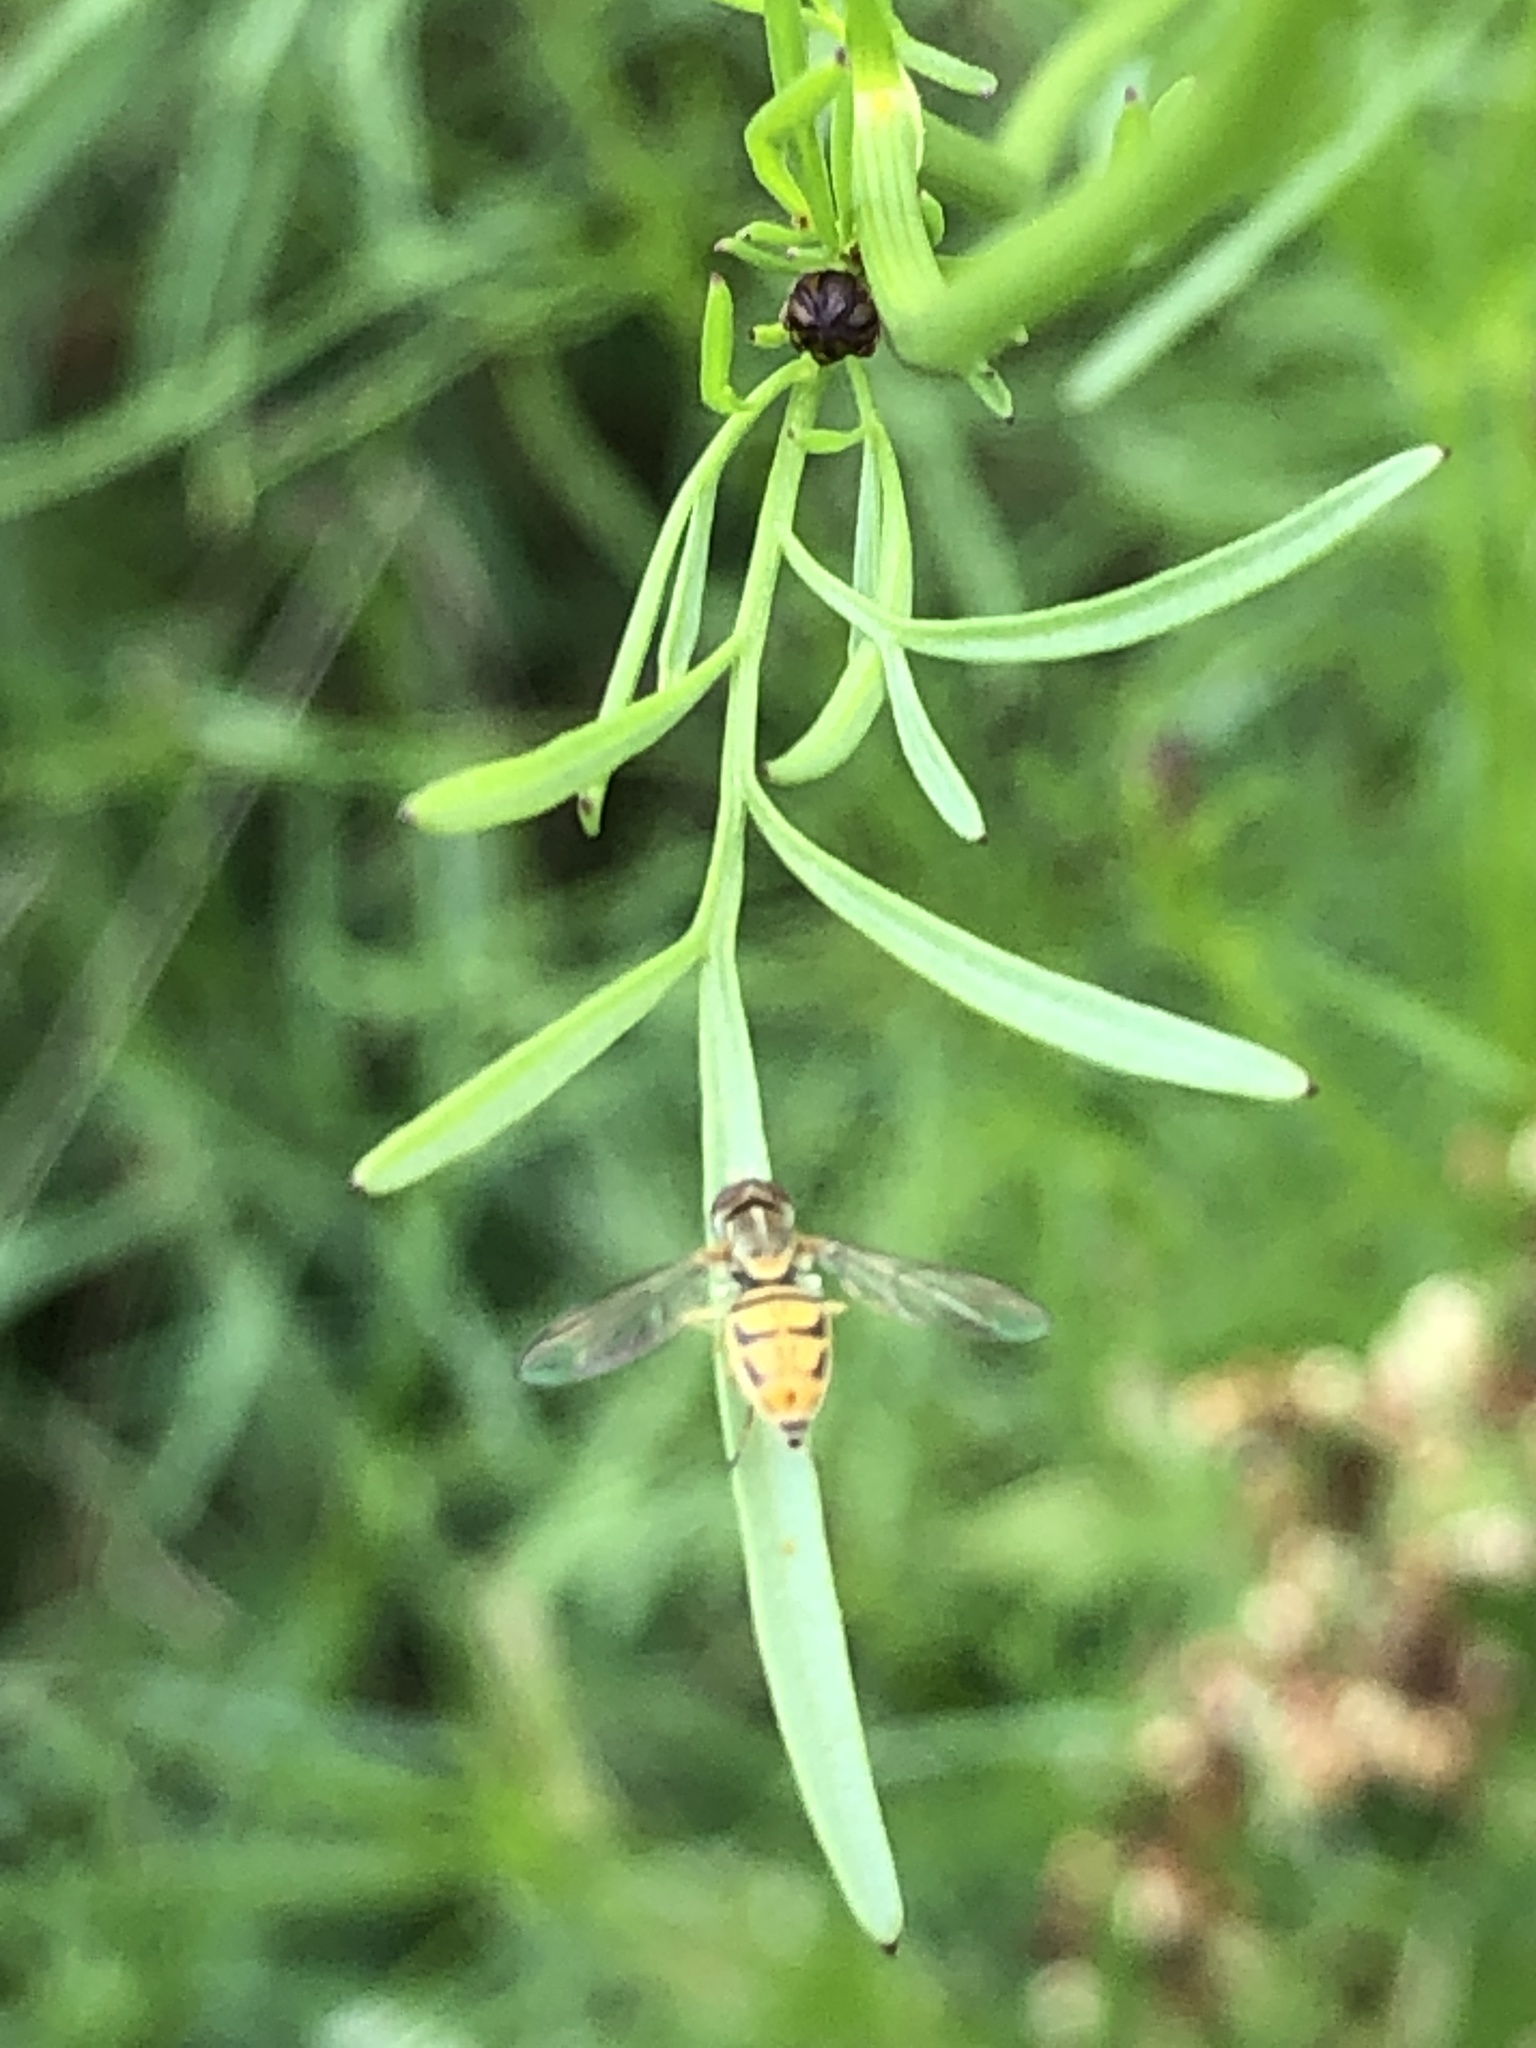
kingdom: Animalia
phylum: Arthropoda
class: Insecta
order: Diptera
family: Syrphidae
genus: Toxomerus
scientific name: Toxomerus marginatus
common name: Syrphid fly
